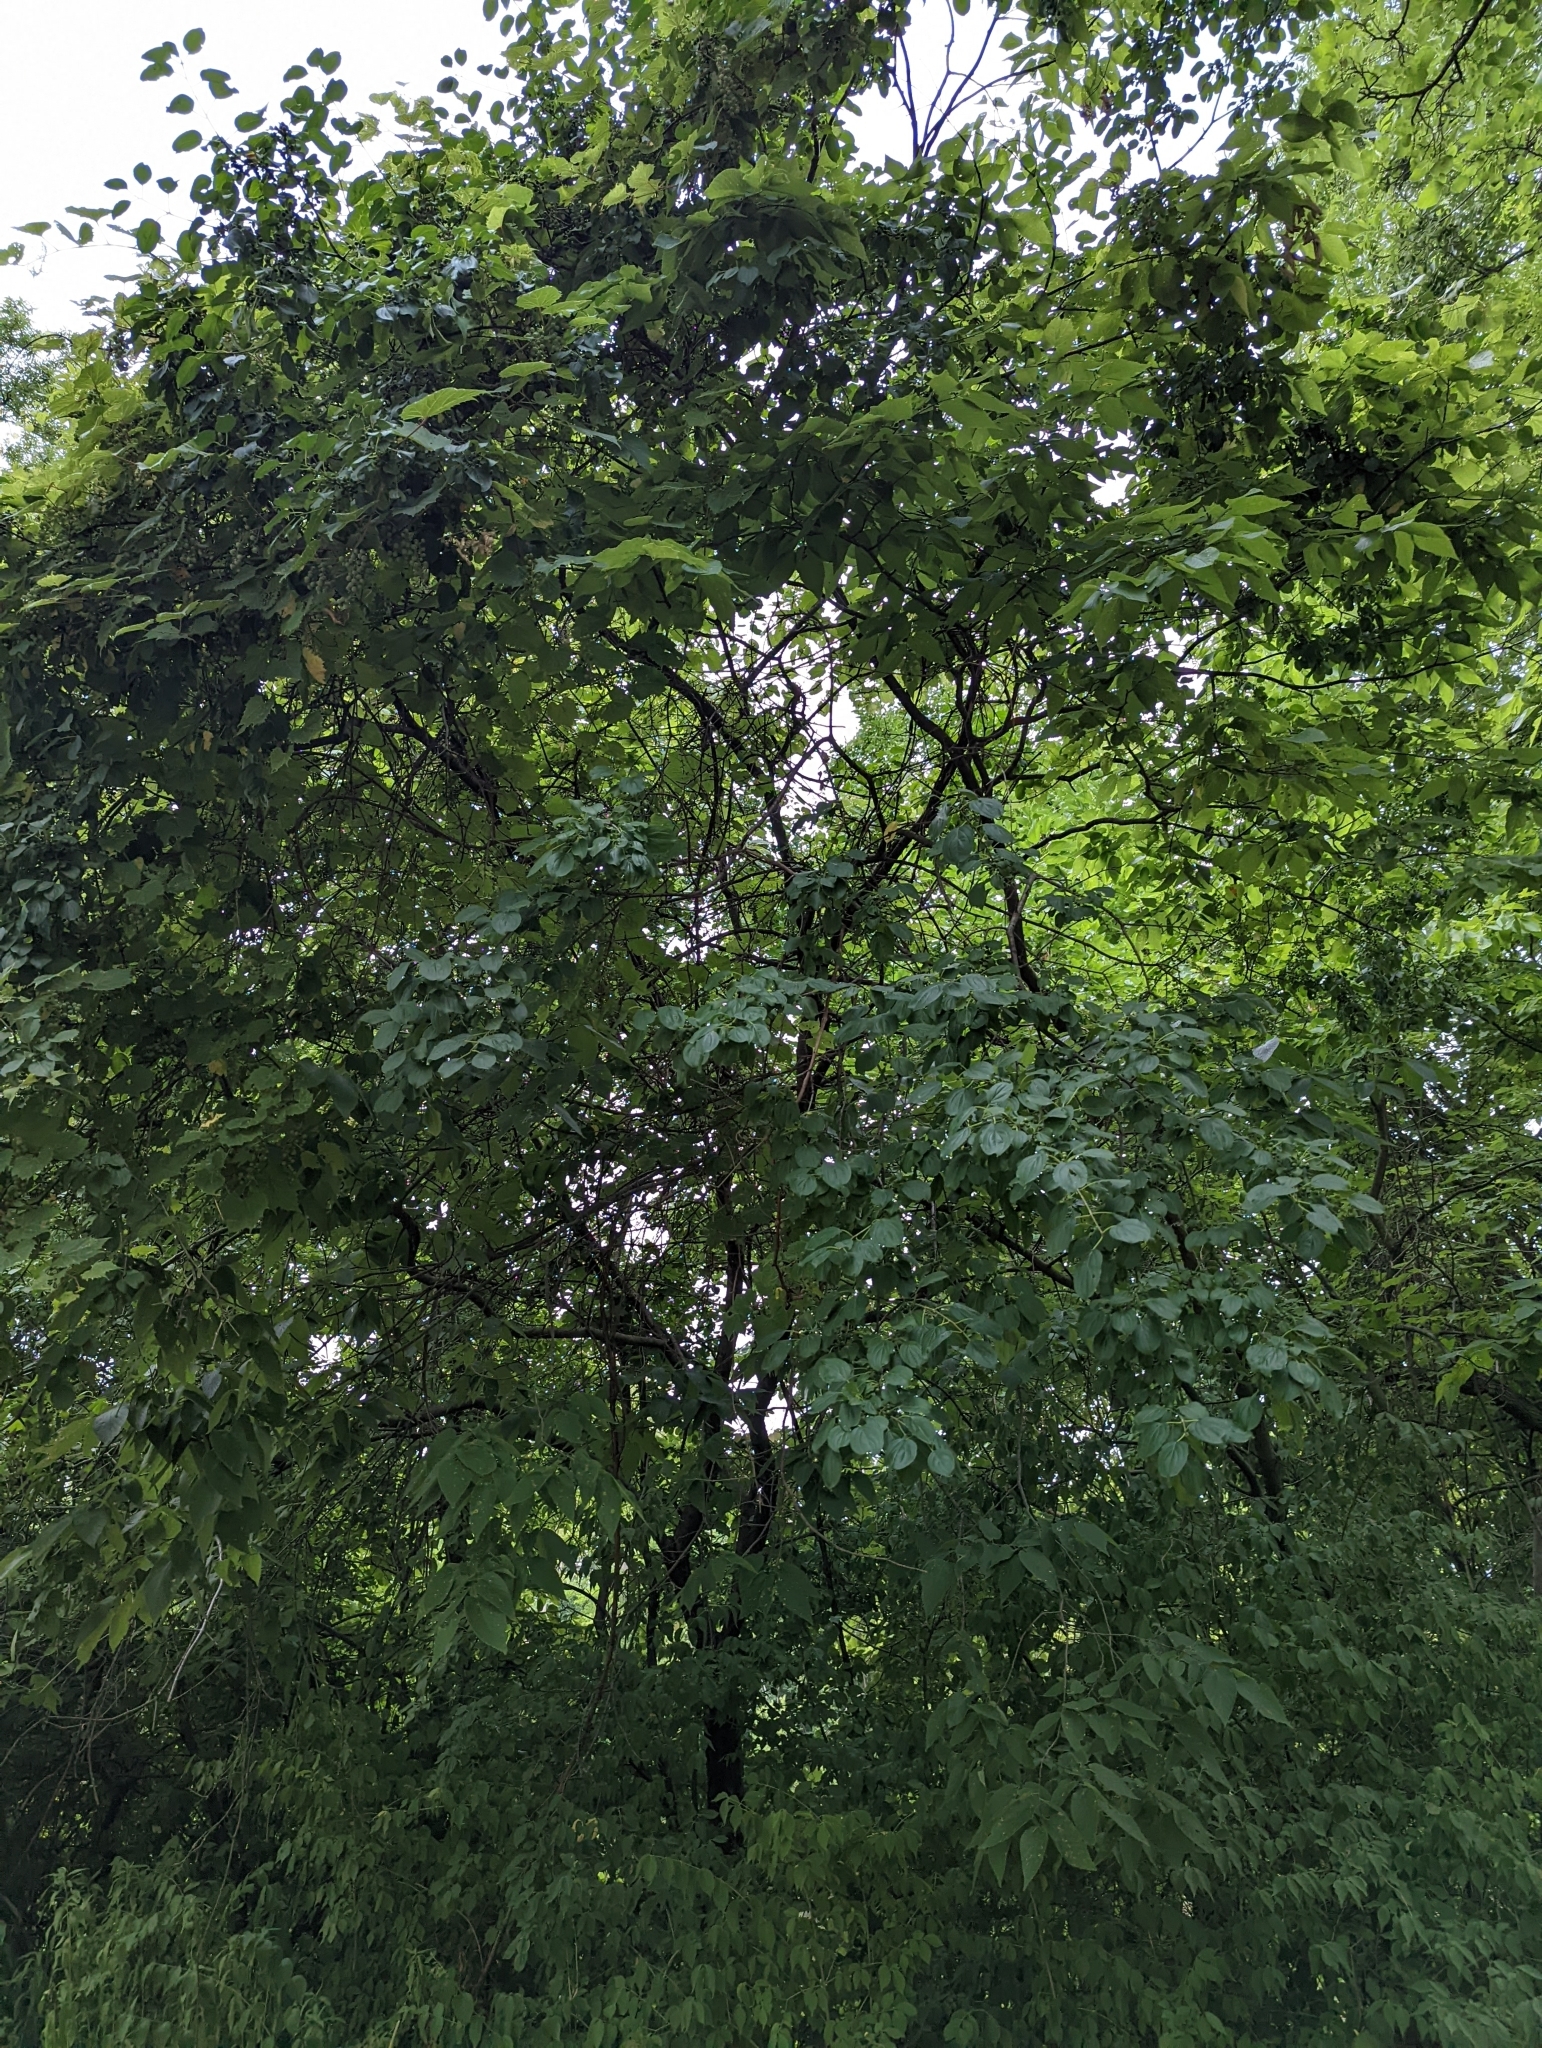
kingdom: Plantae
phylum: Tracheophyta
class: Magnoliopsida
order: Rosales
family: Rhamnaceae
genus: Rhamnus
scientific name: Rhamnus cathartica
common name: Common buckthorn
